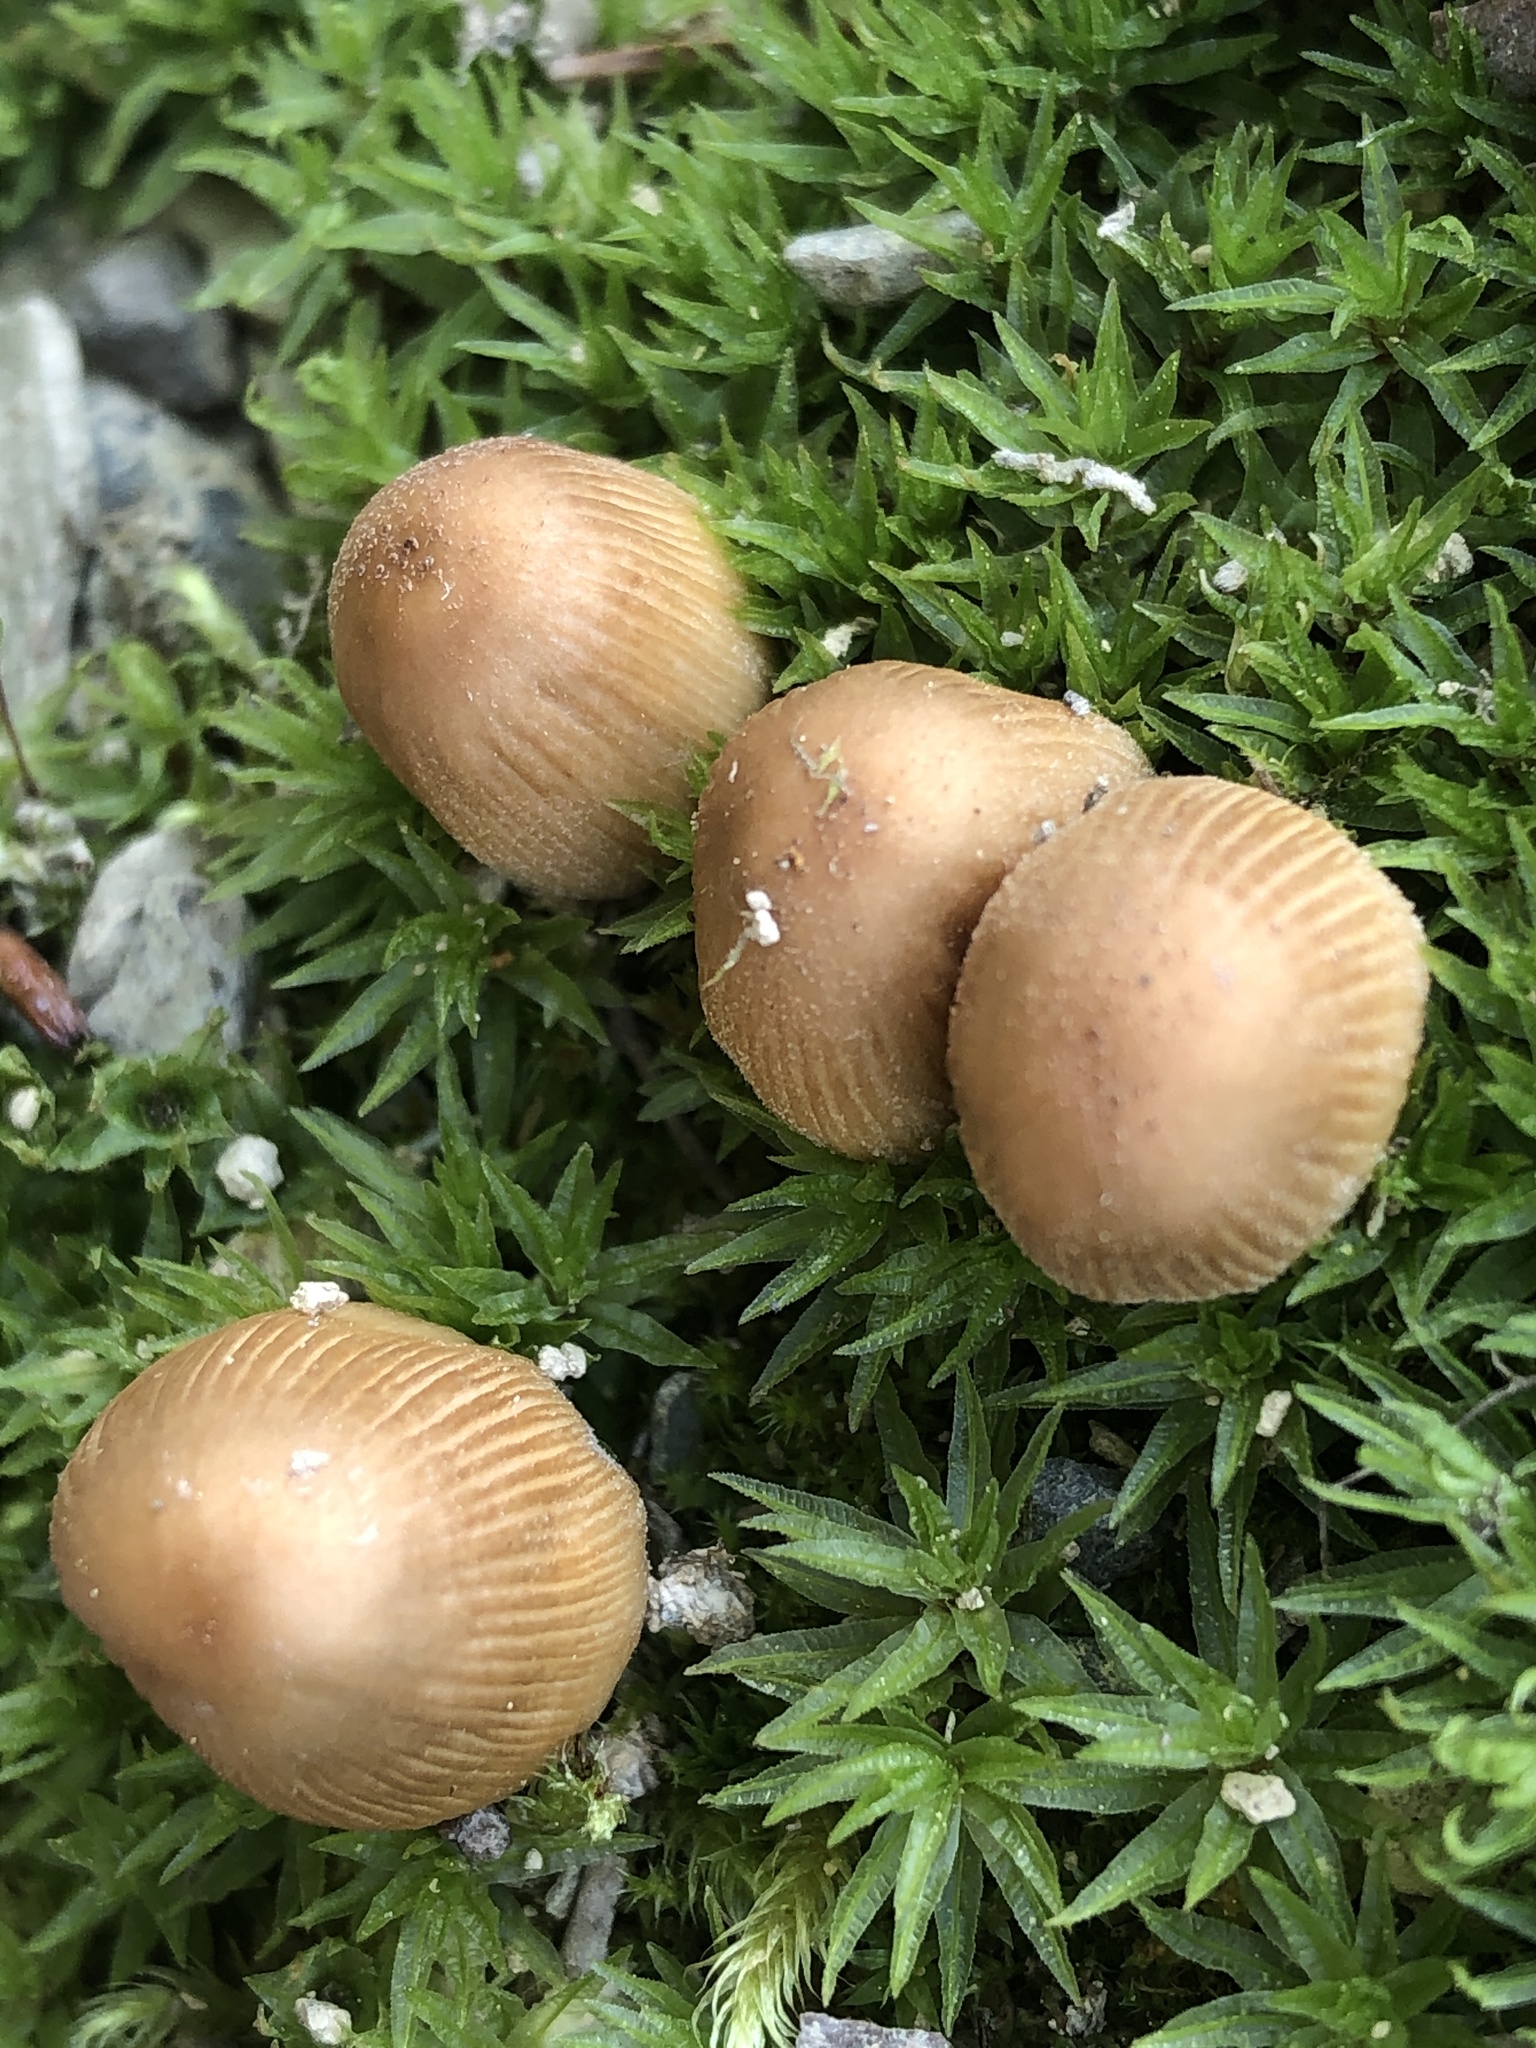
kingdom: Fungi
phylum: Basidiomycota
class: Agaricomycetes
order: Agaricales
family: Psathyrellaceae
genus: Coprinellus
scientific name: Coprinellus micaceus
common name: Glistening ink-cap
